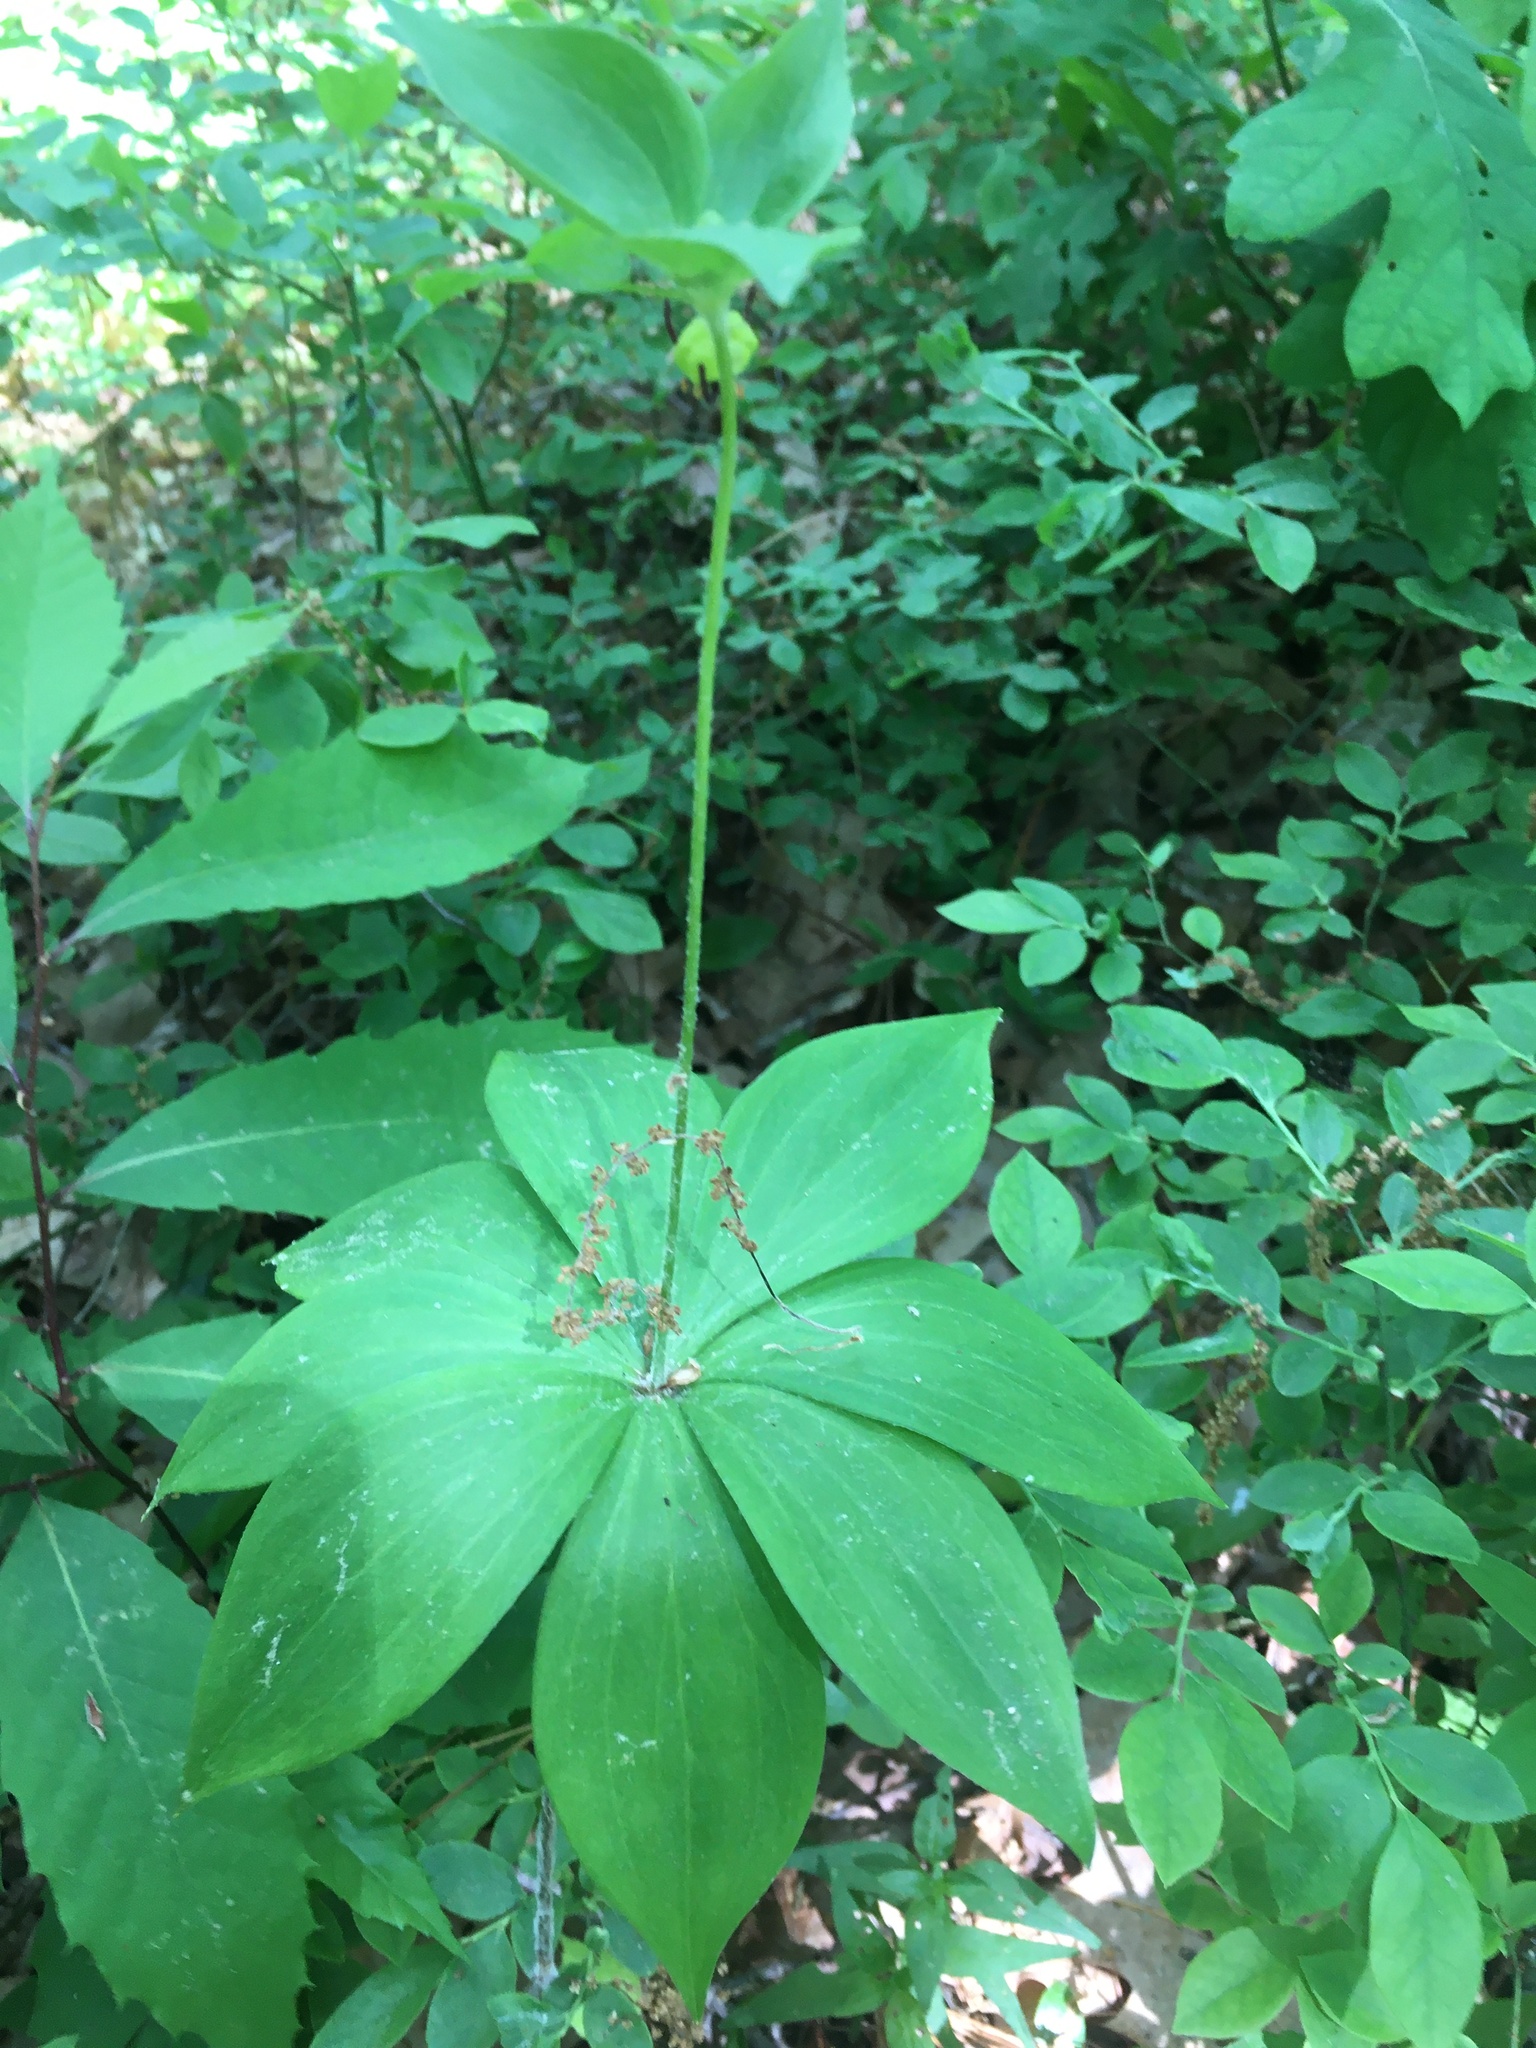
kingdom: Plantae
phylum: Tracheophyta
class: Liliopsida
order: Liliales
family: Liliaceae
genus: Medeola
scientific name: Medeola virginiana
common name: Indian cucumber-root
